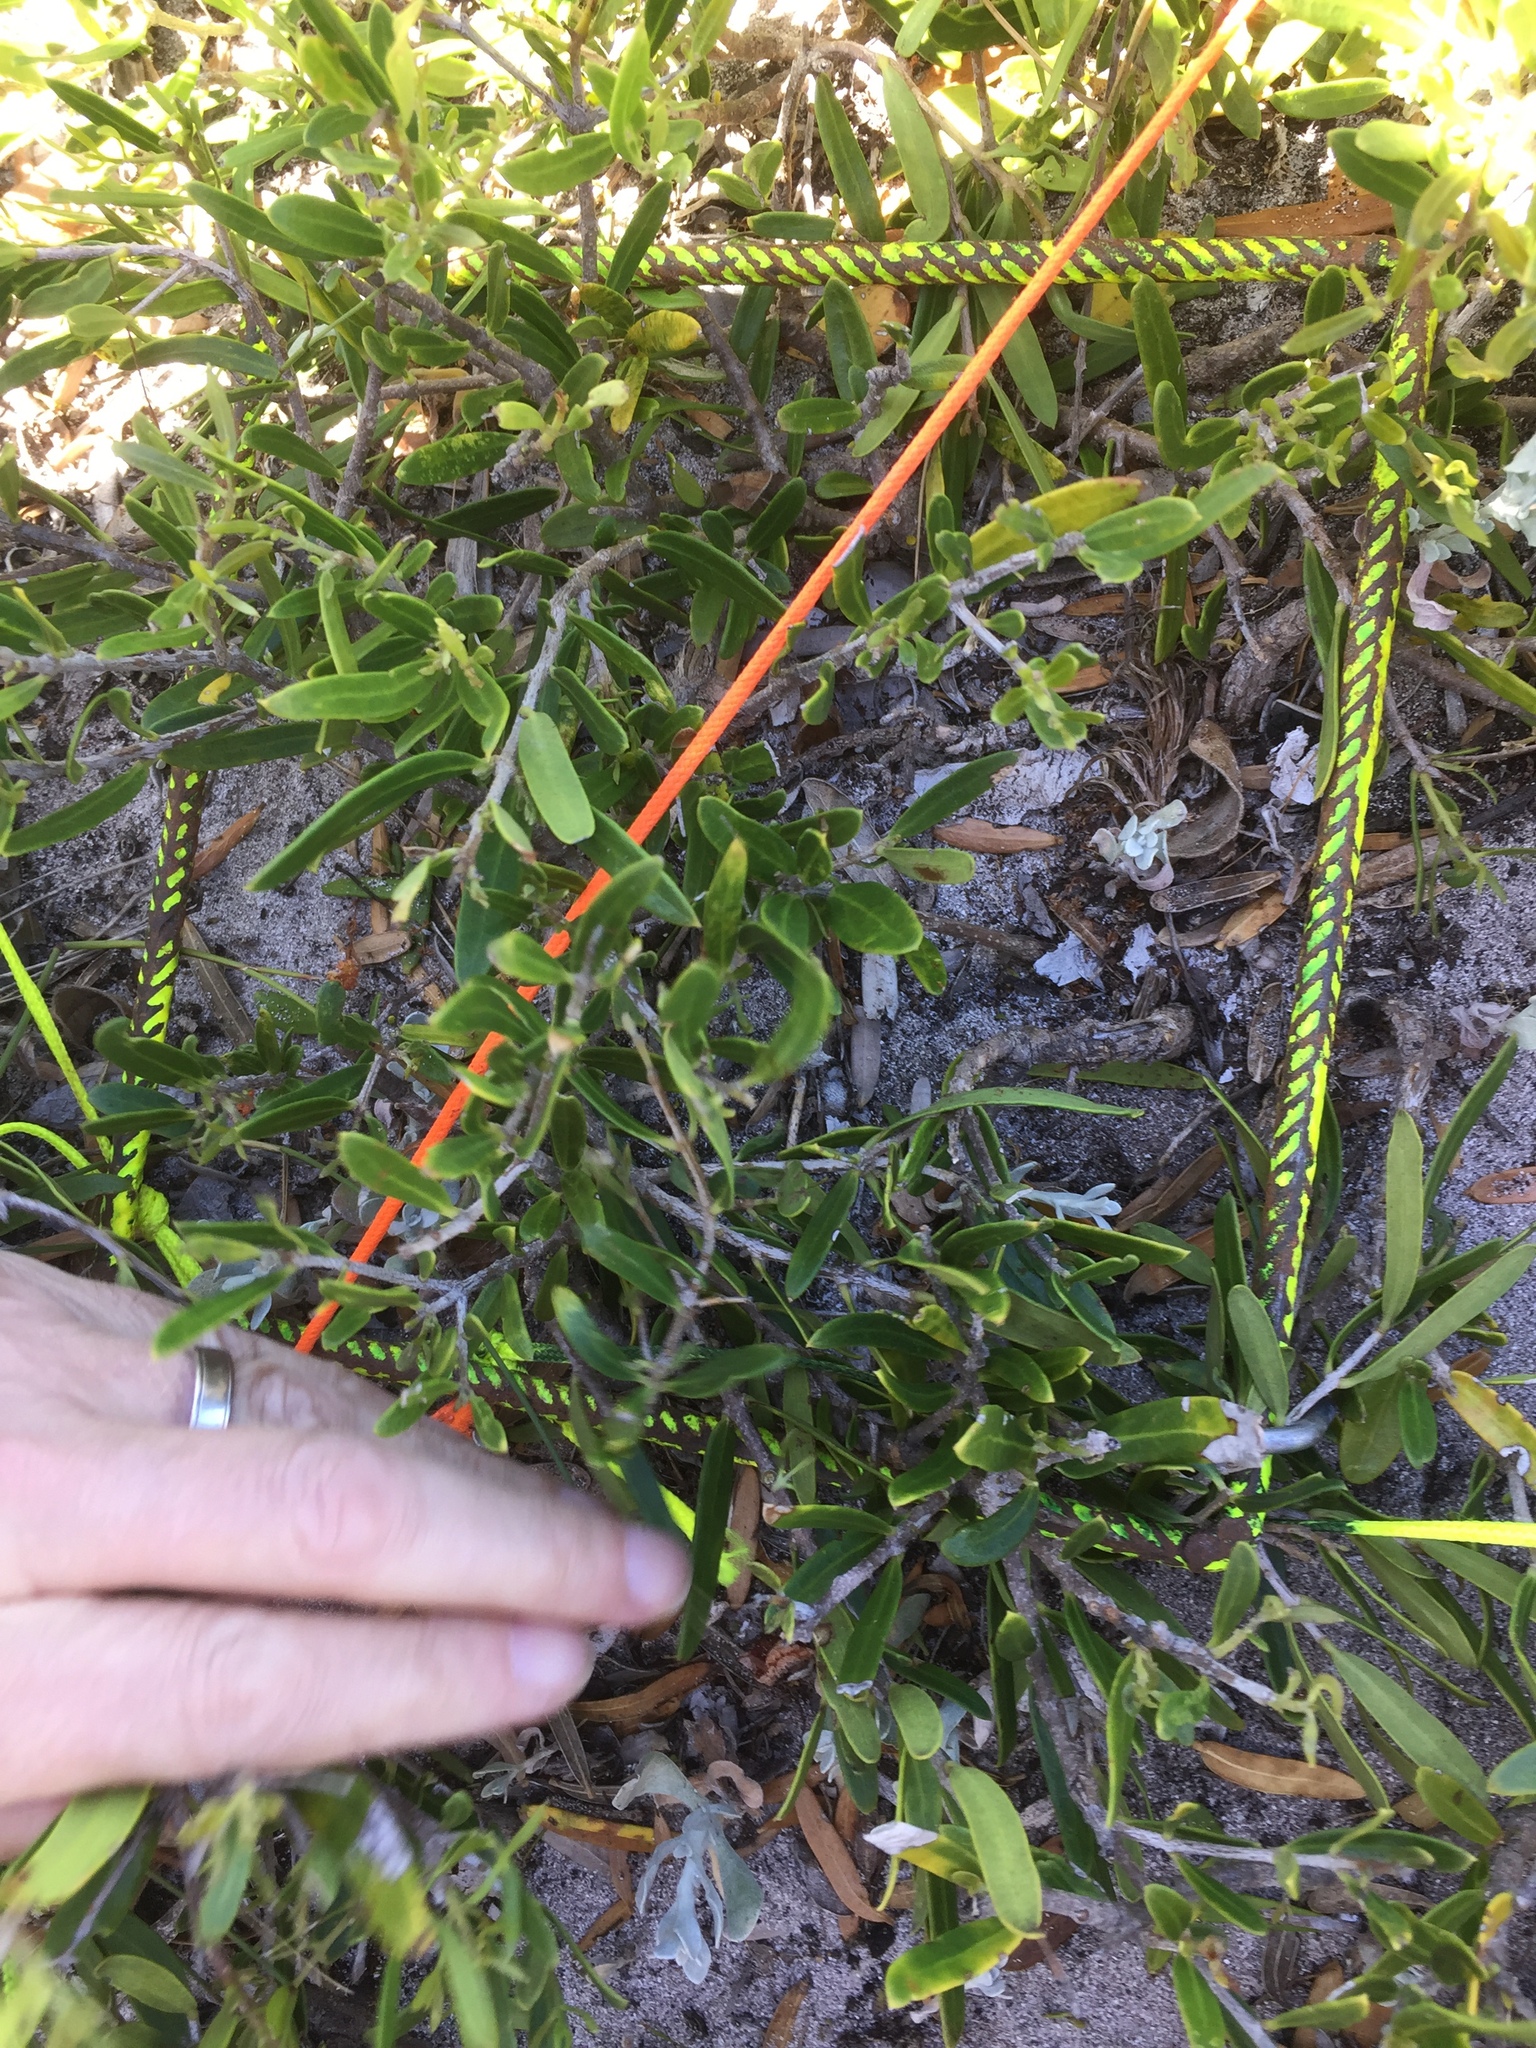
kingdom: Plantae
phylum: Tracheophyta
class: Magnoliopsida
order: Lamiales
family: Oleaceae
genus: Olea
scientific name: Olea exasperata
